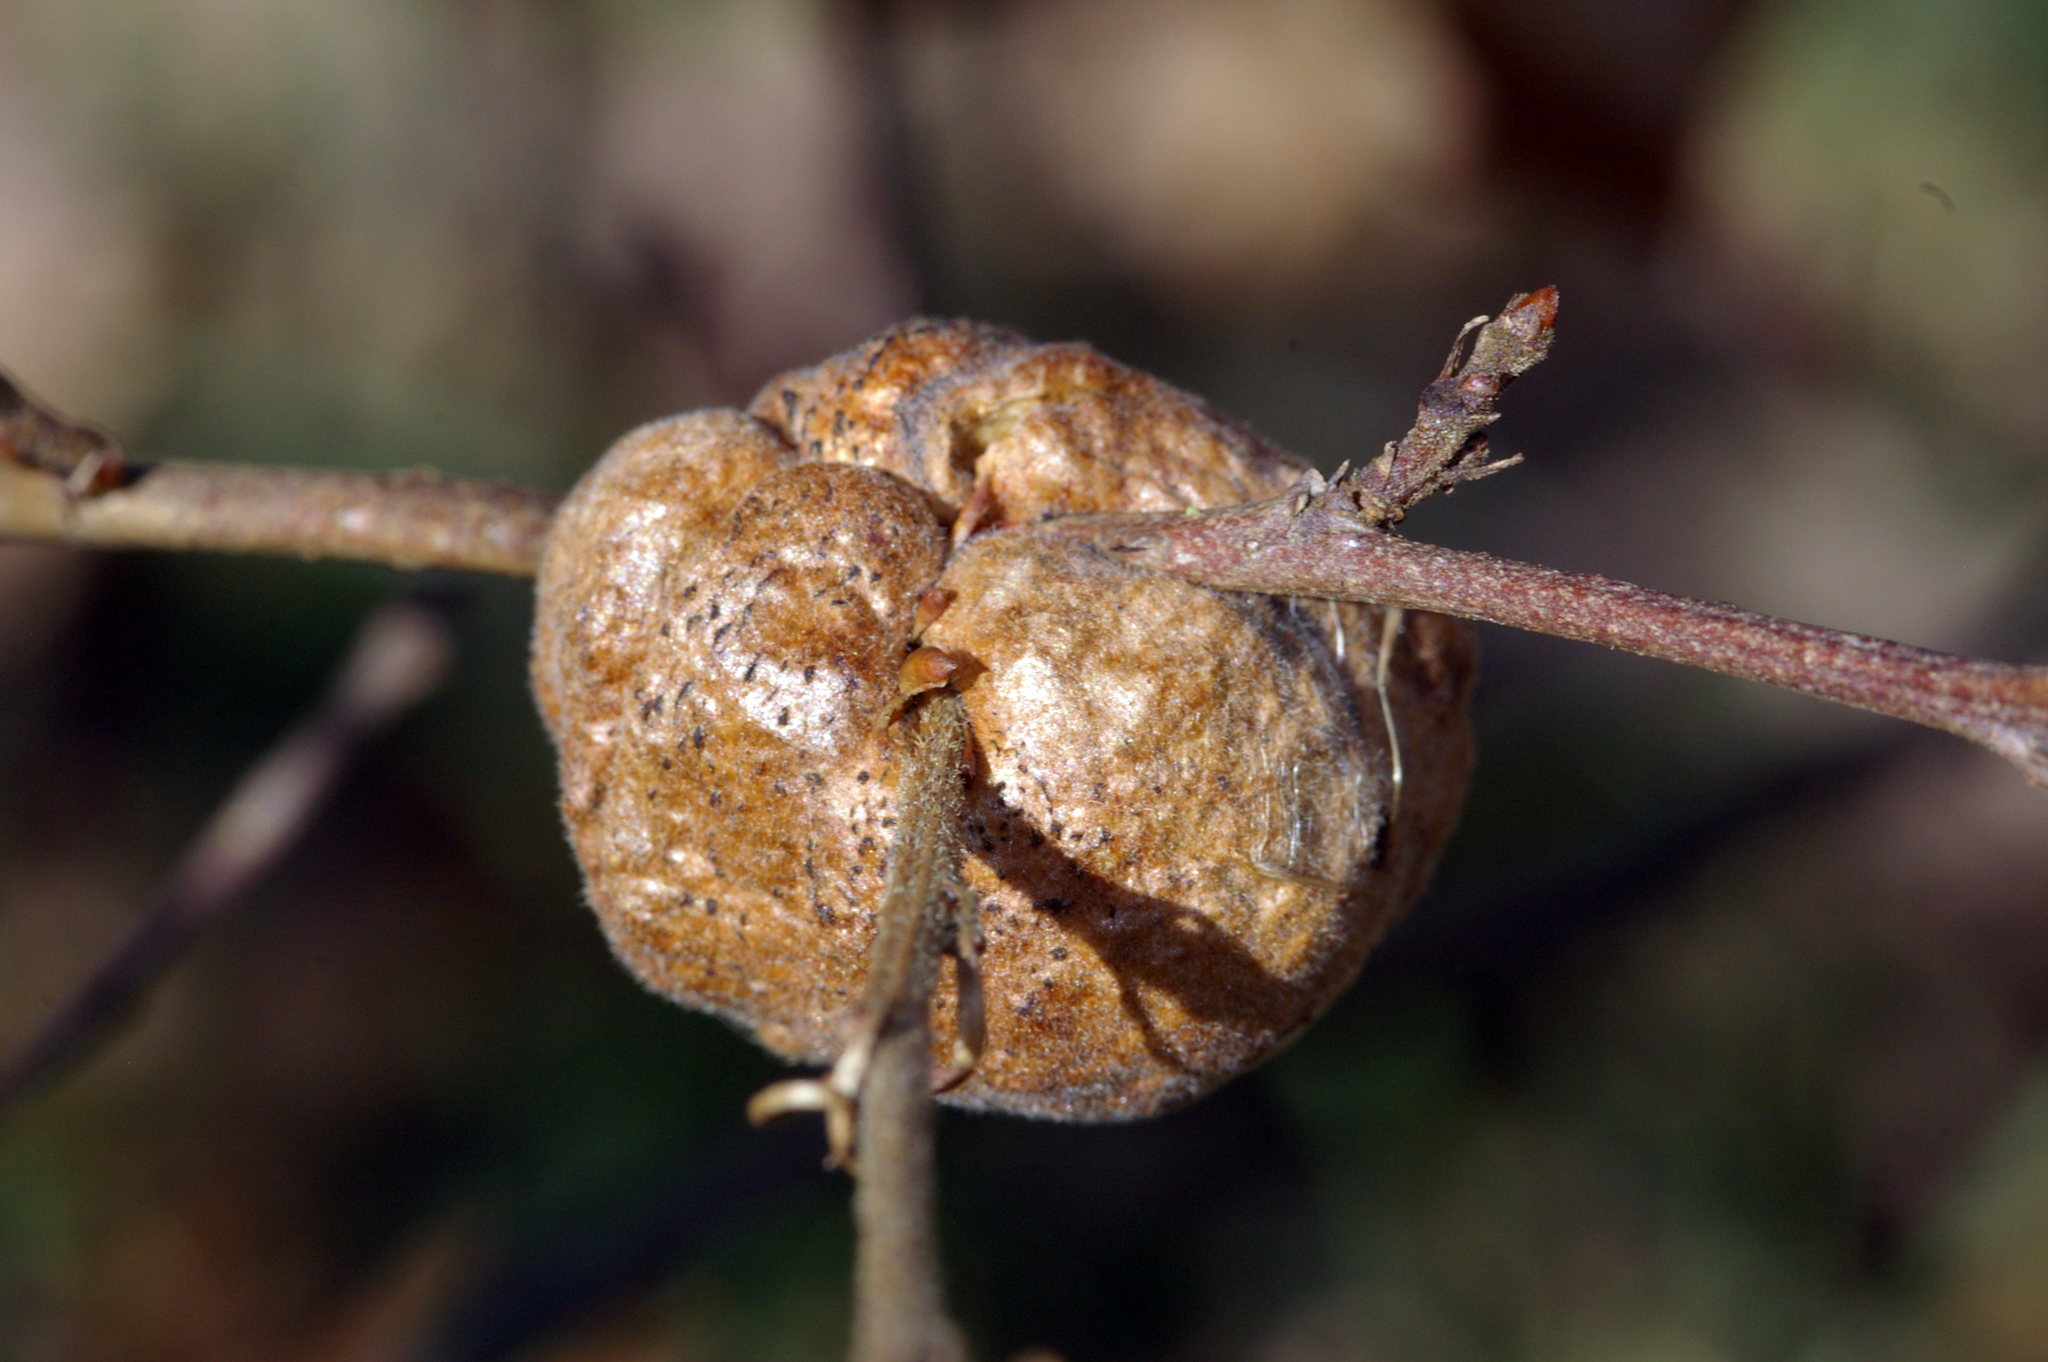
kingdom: Animalia
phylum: Arthropoda
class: Insecta
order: Hymenoptera
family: Cynipidae
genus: Aphelonyx
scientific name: Aphelonyx cerricola
